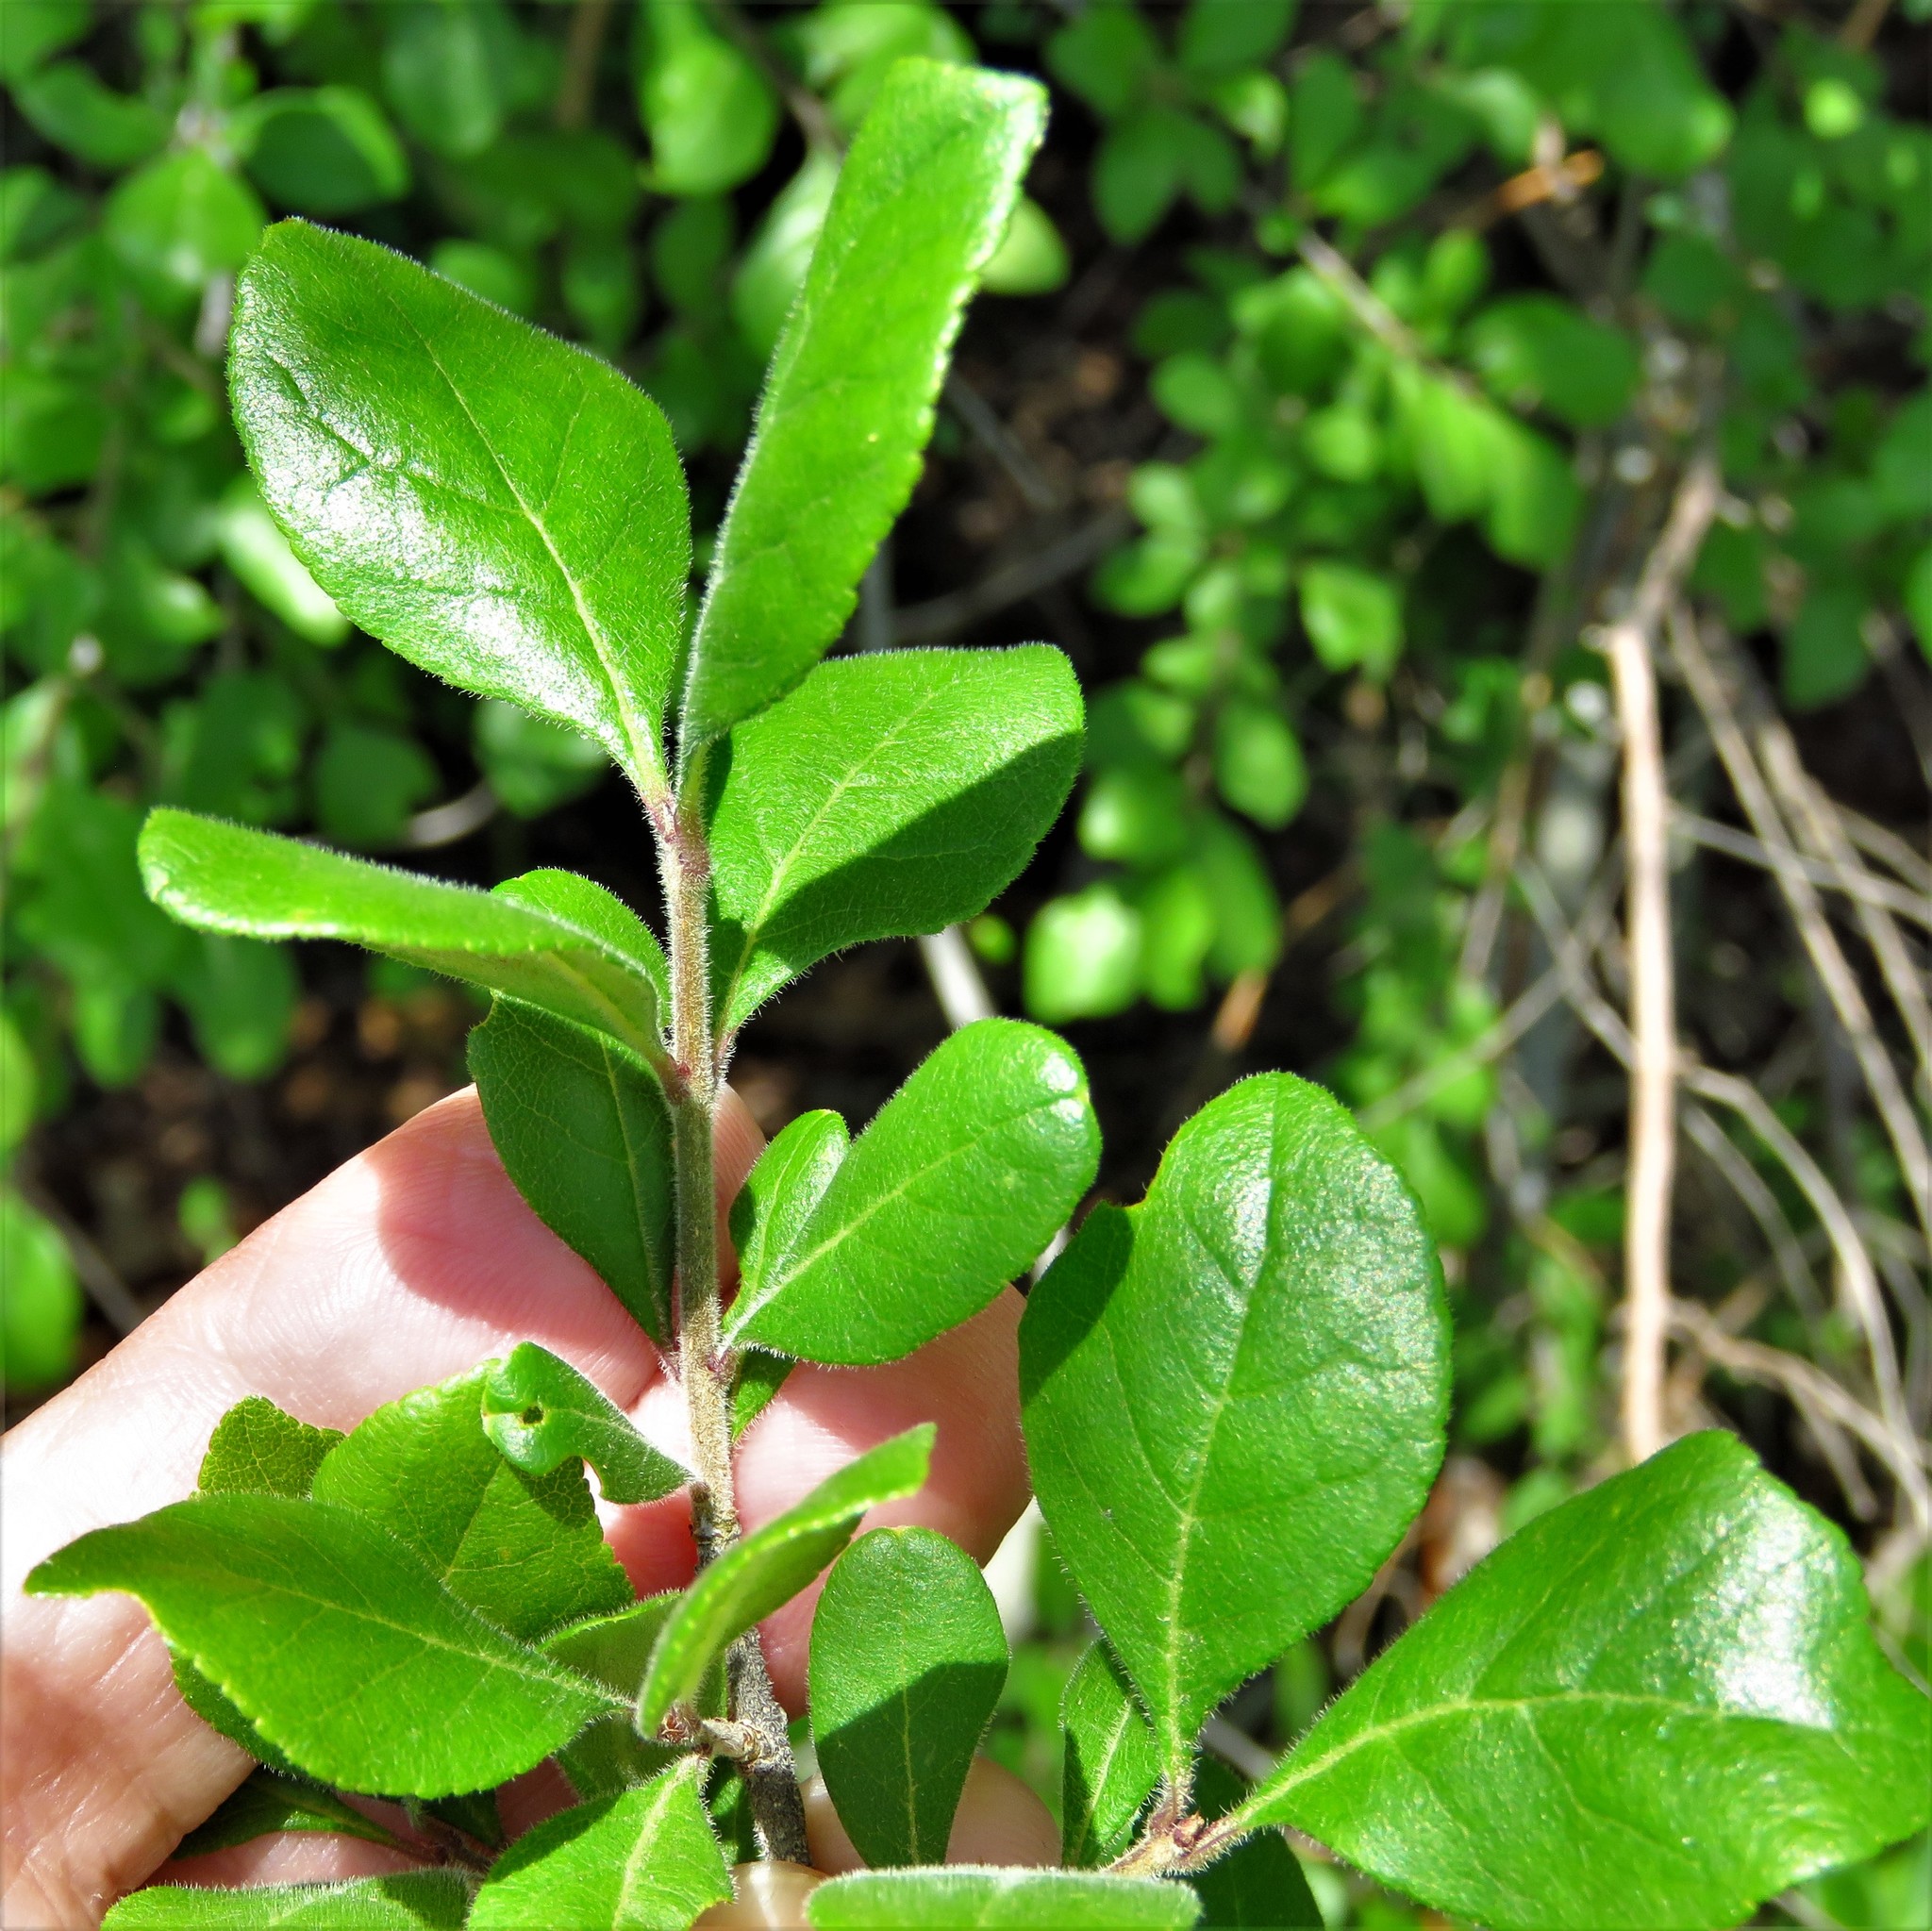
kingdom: Plantae
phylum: Tracheophyta
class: Magnoliopsida
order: Lamiales
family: Oleaceae
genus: Forestiera
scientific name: Forestiera pubescens
